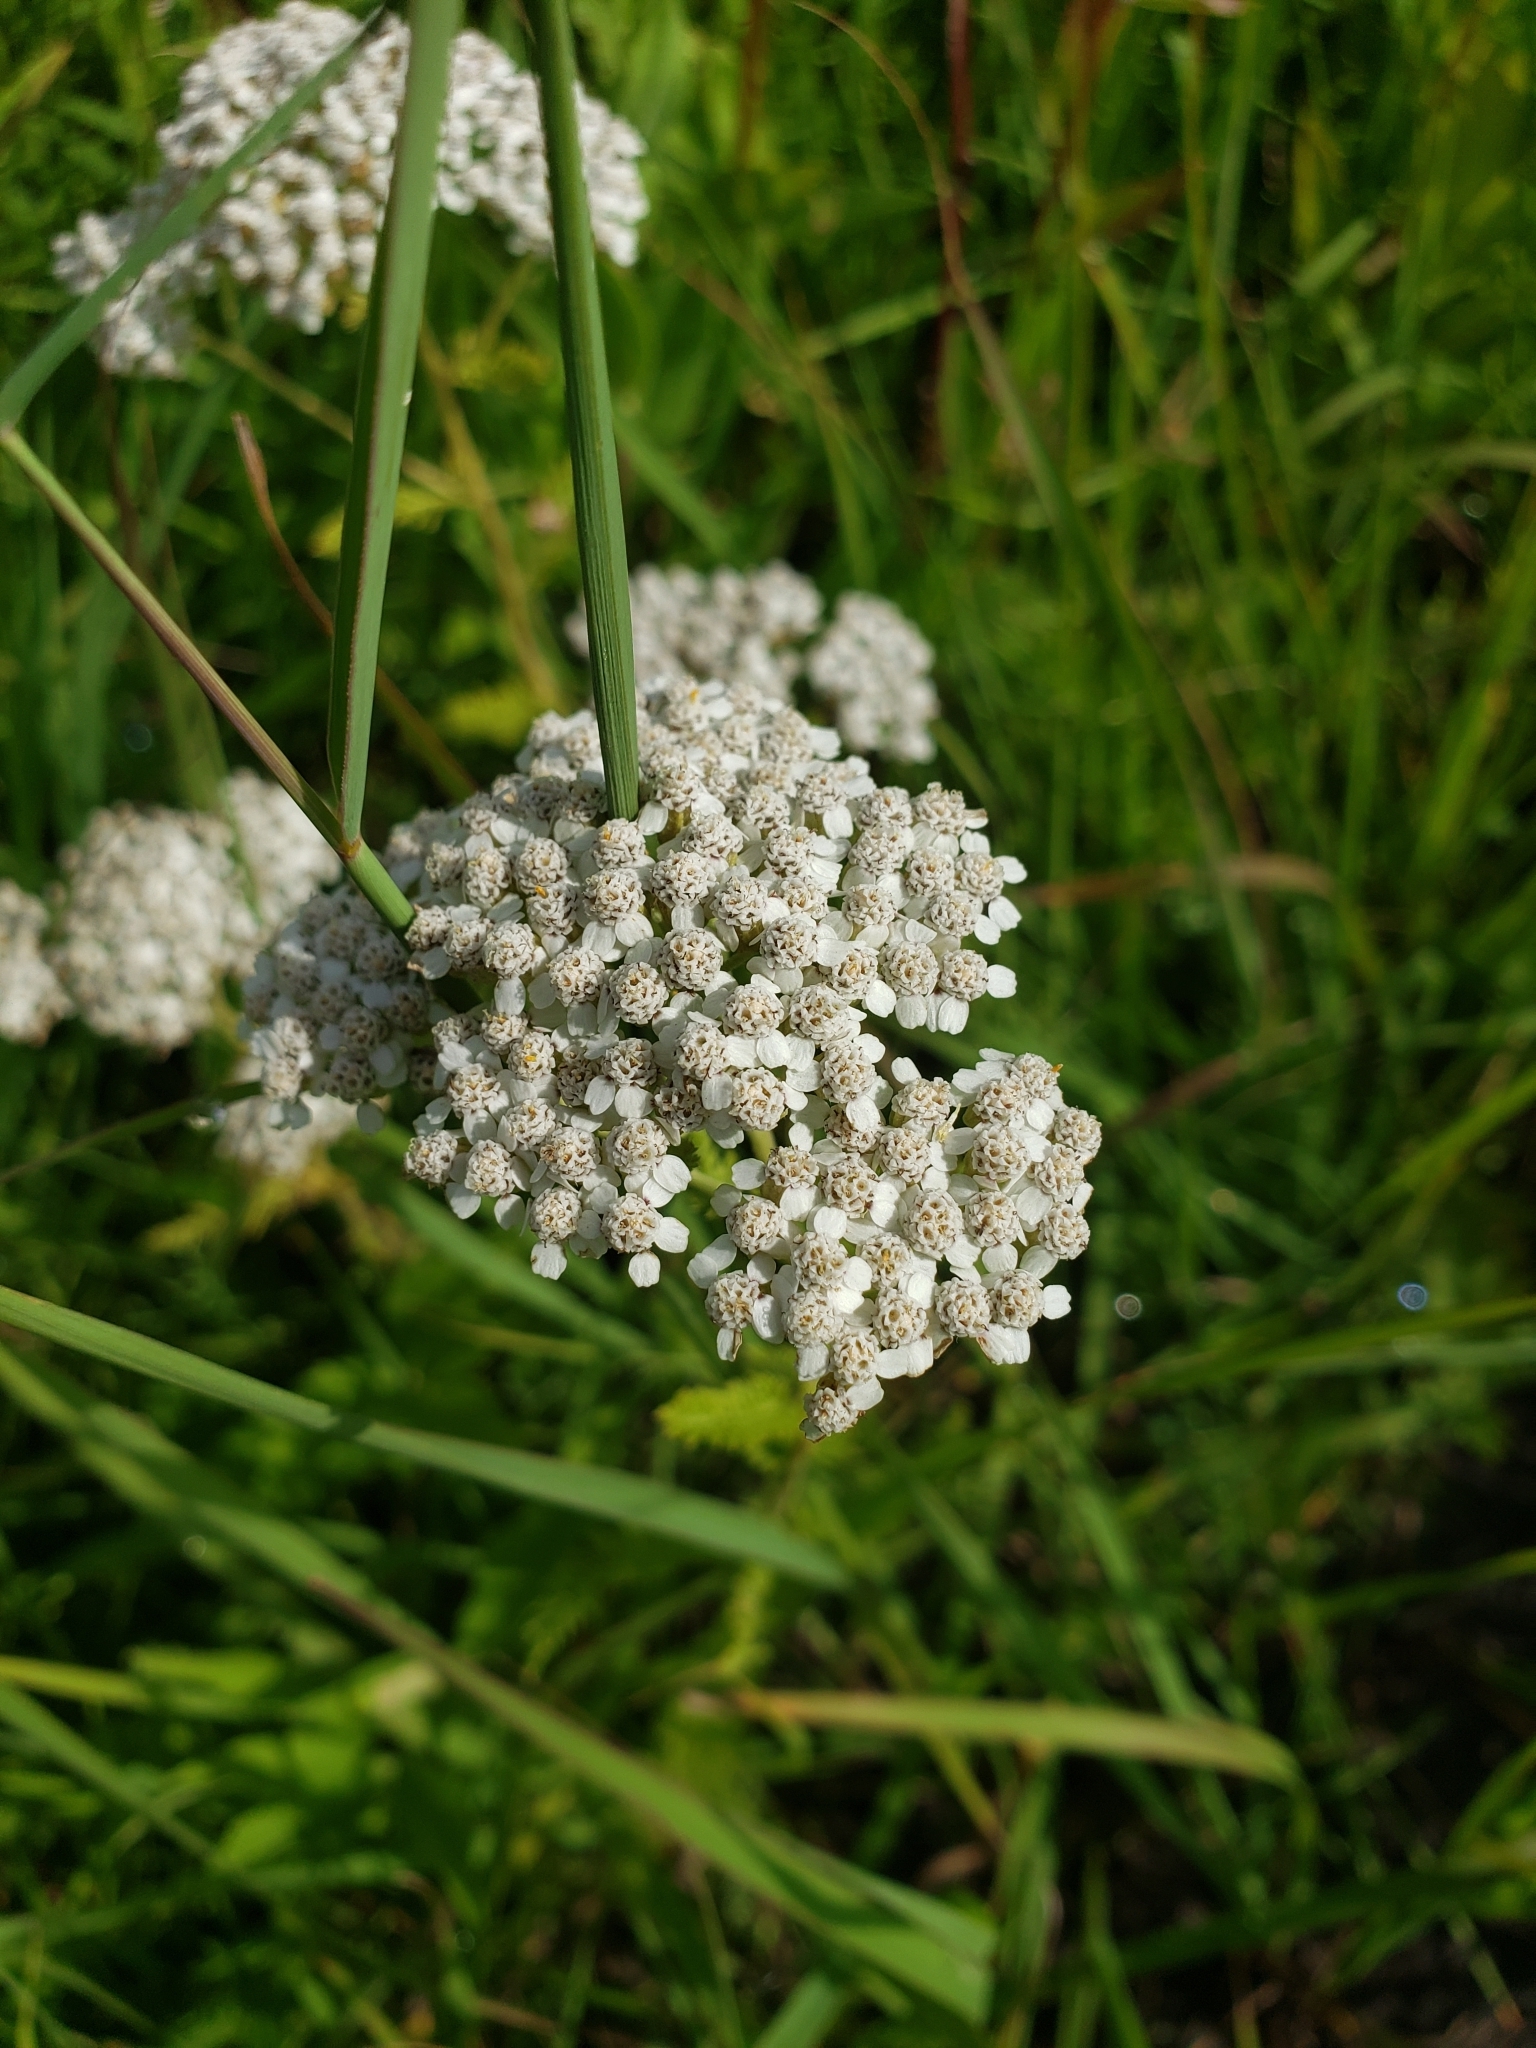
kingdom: Plantae
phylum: Tracheophyta
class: Magnoliopsida
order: Asterales
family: Asteraceae
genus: Achillea
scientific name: Achillea millefolium
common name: Yarrow
